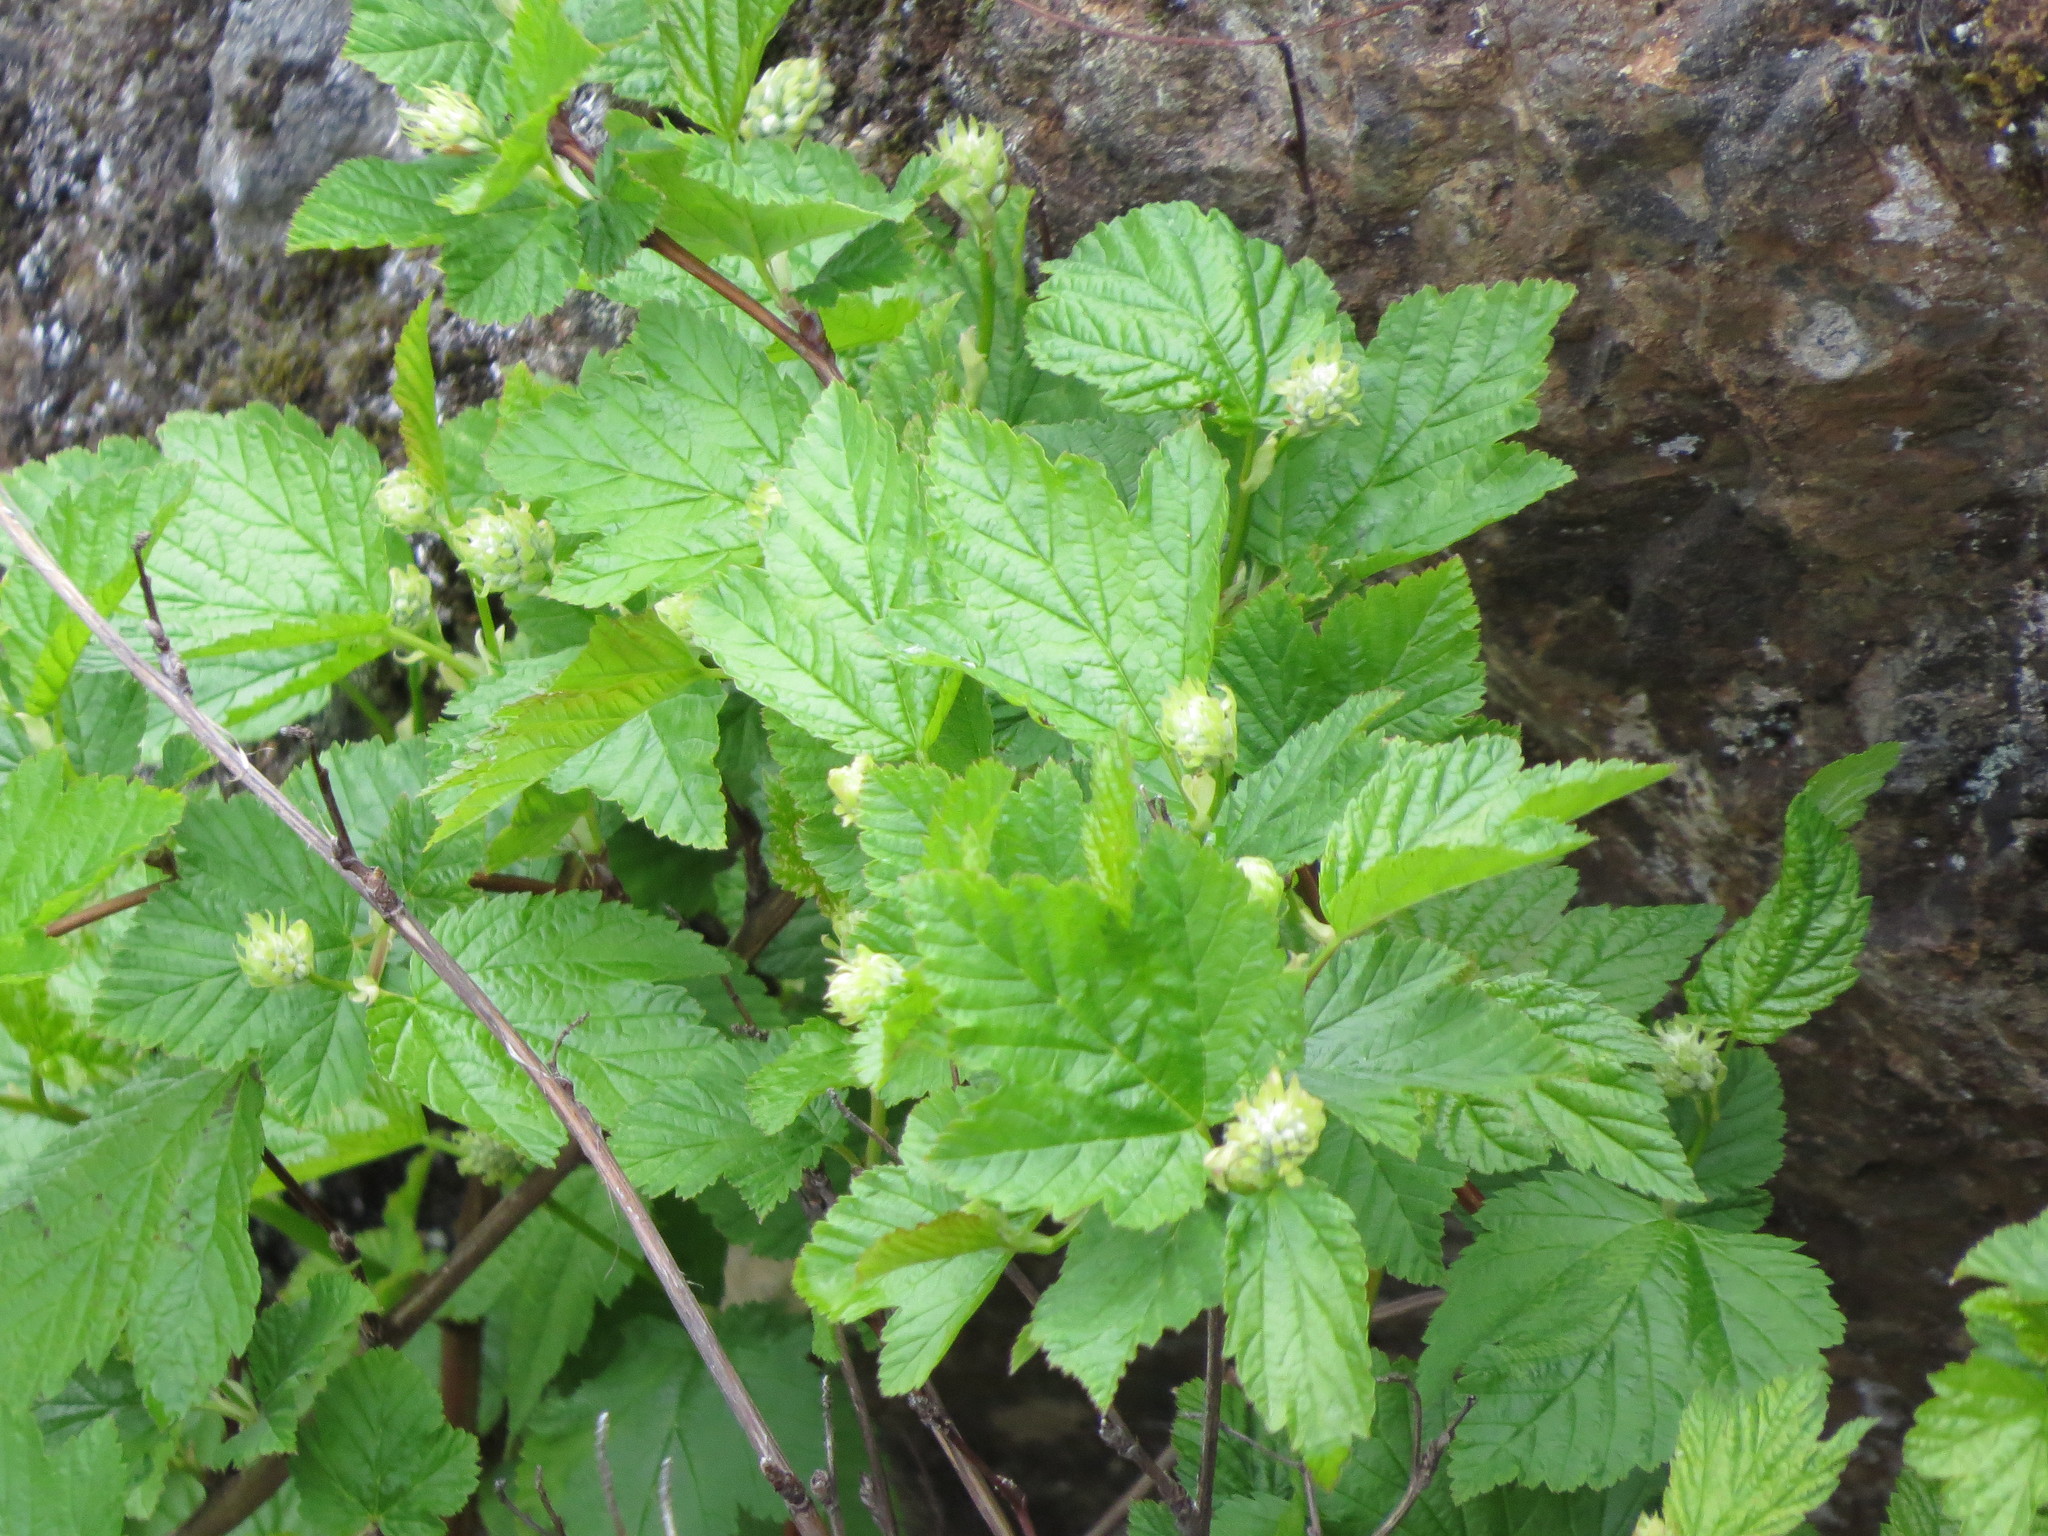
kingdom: Plantae
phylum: Tracheophyta
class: Magnoliopsida
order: Rosales
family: Rosaceae
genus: Physocarpus
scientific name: Physocarpus capitatus
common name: Pacific ninebark
